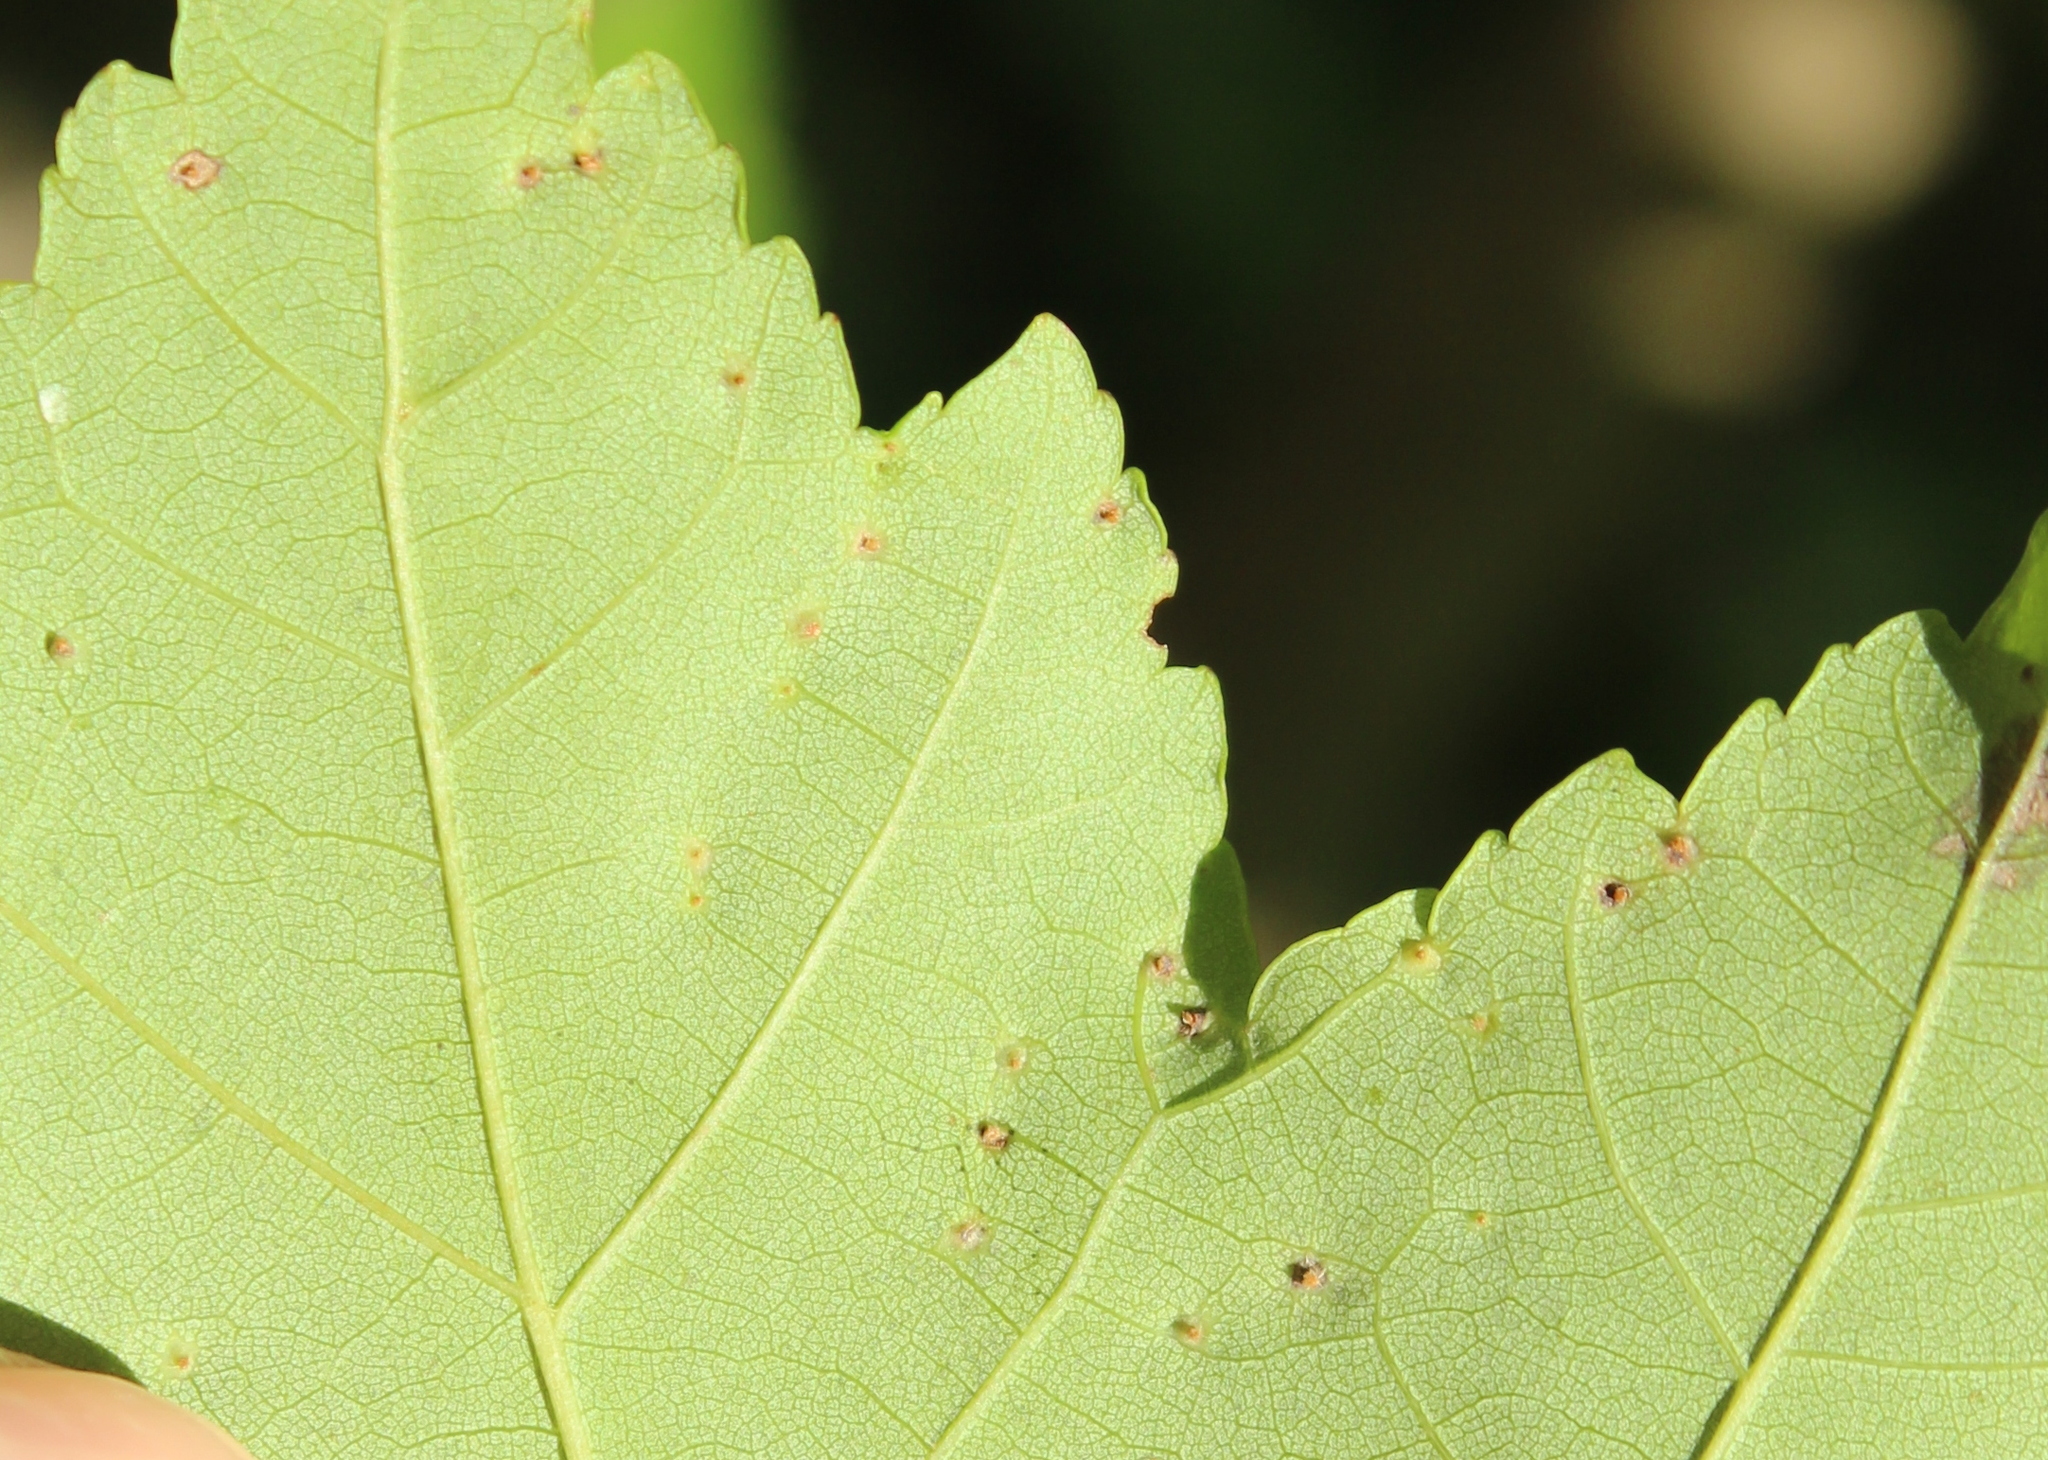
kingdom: Animalia
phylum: Arthropoda
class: Arachnida
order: Trombidiformes
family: Eriophyidae
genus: Vasates
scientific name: Vasates quadripedes
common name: Maple bladder gall mite
